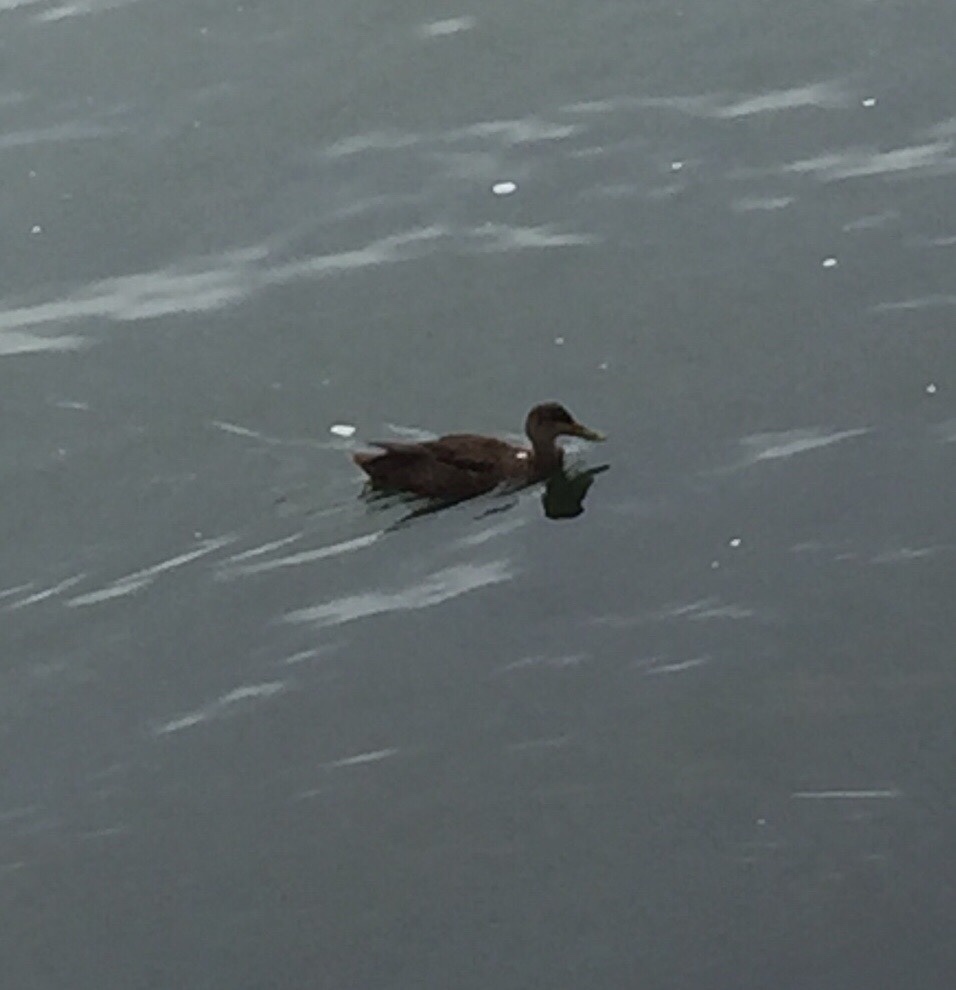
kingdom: Animalia
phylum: Chordata
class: Aves
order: Anseriformes
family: Anatidae
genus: Anas
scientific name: Anas rubripes
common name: American black duck
